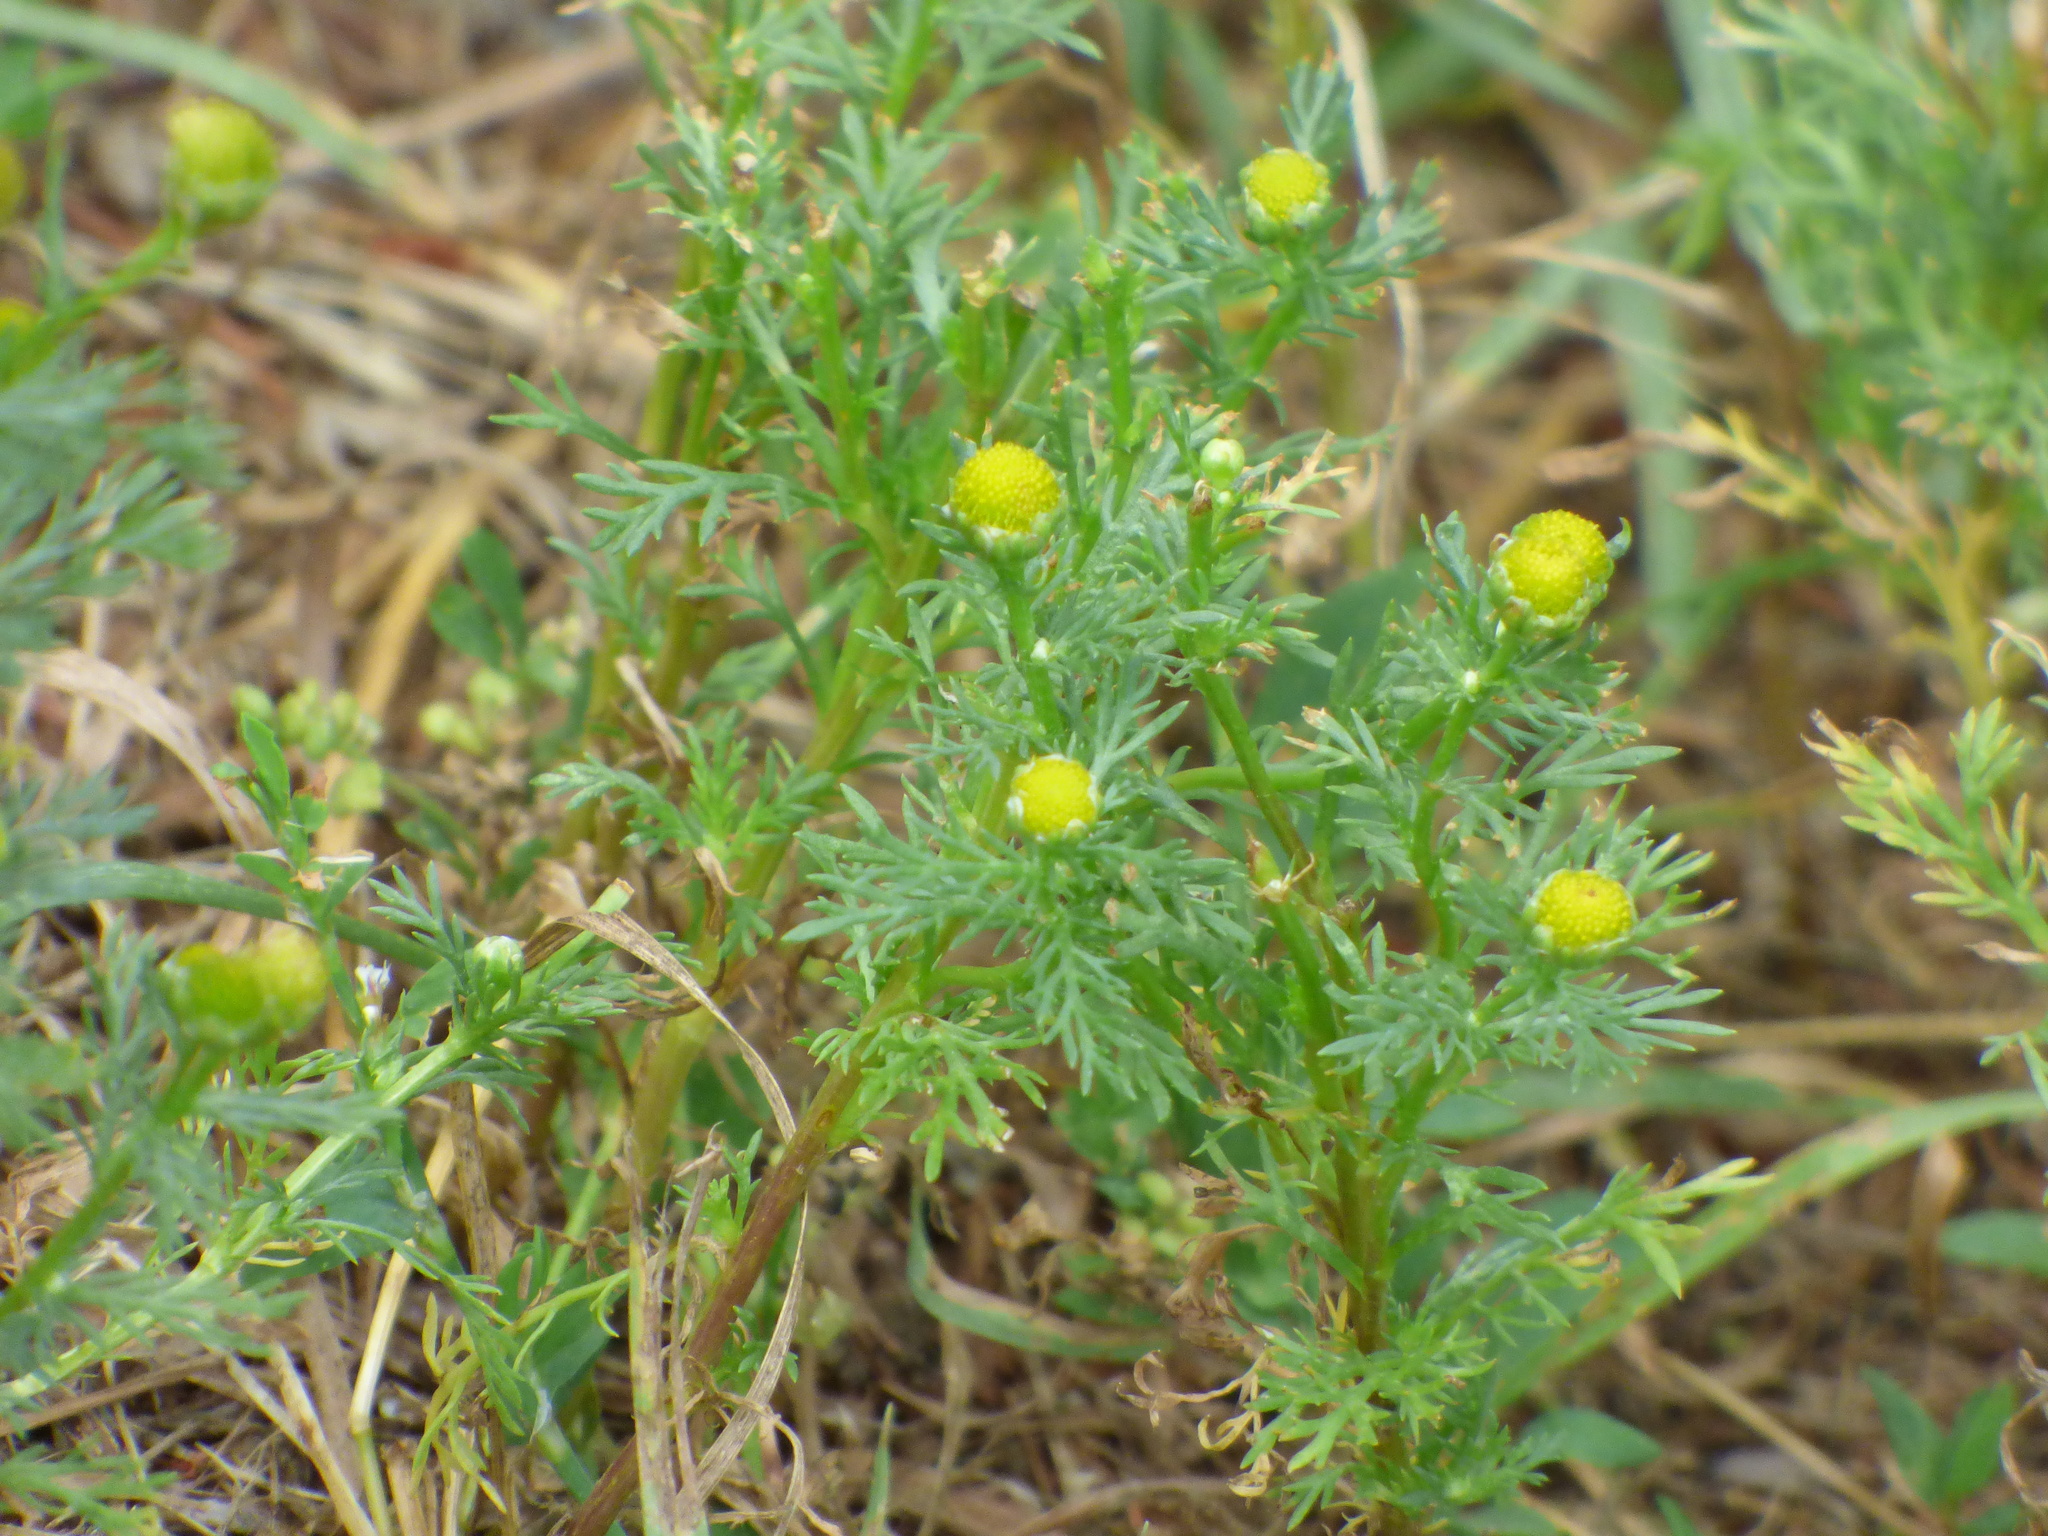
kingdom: Plantae
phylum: Tracheophyta
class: Magnoliopsida
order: Asterales
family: Asteraceae
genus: Matricaria
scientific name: Matricaria discoidea
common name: Disc mayweed
